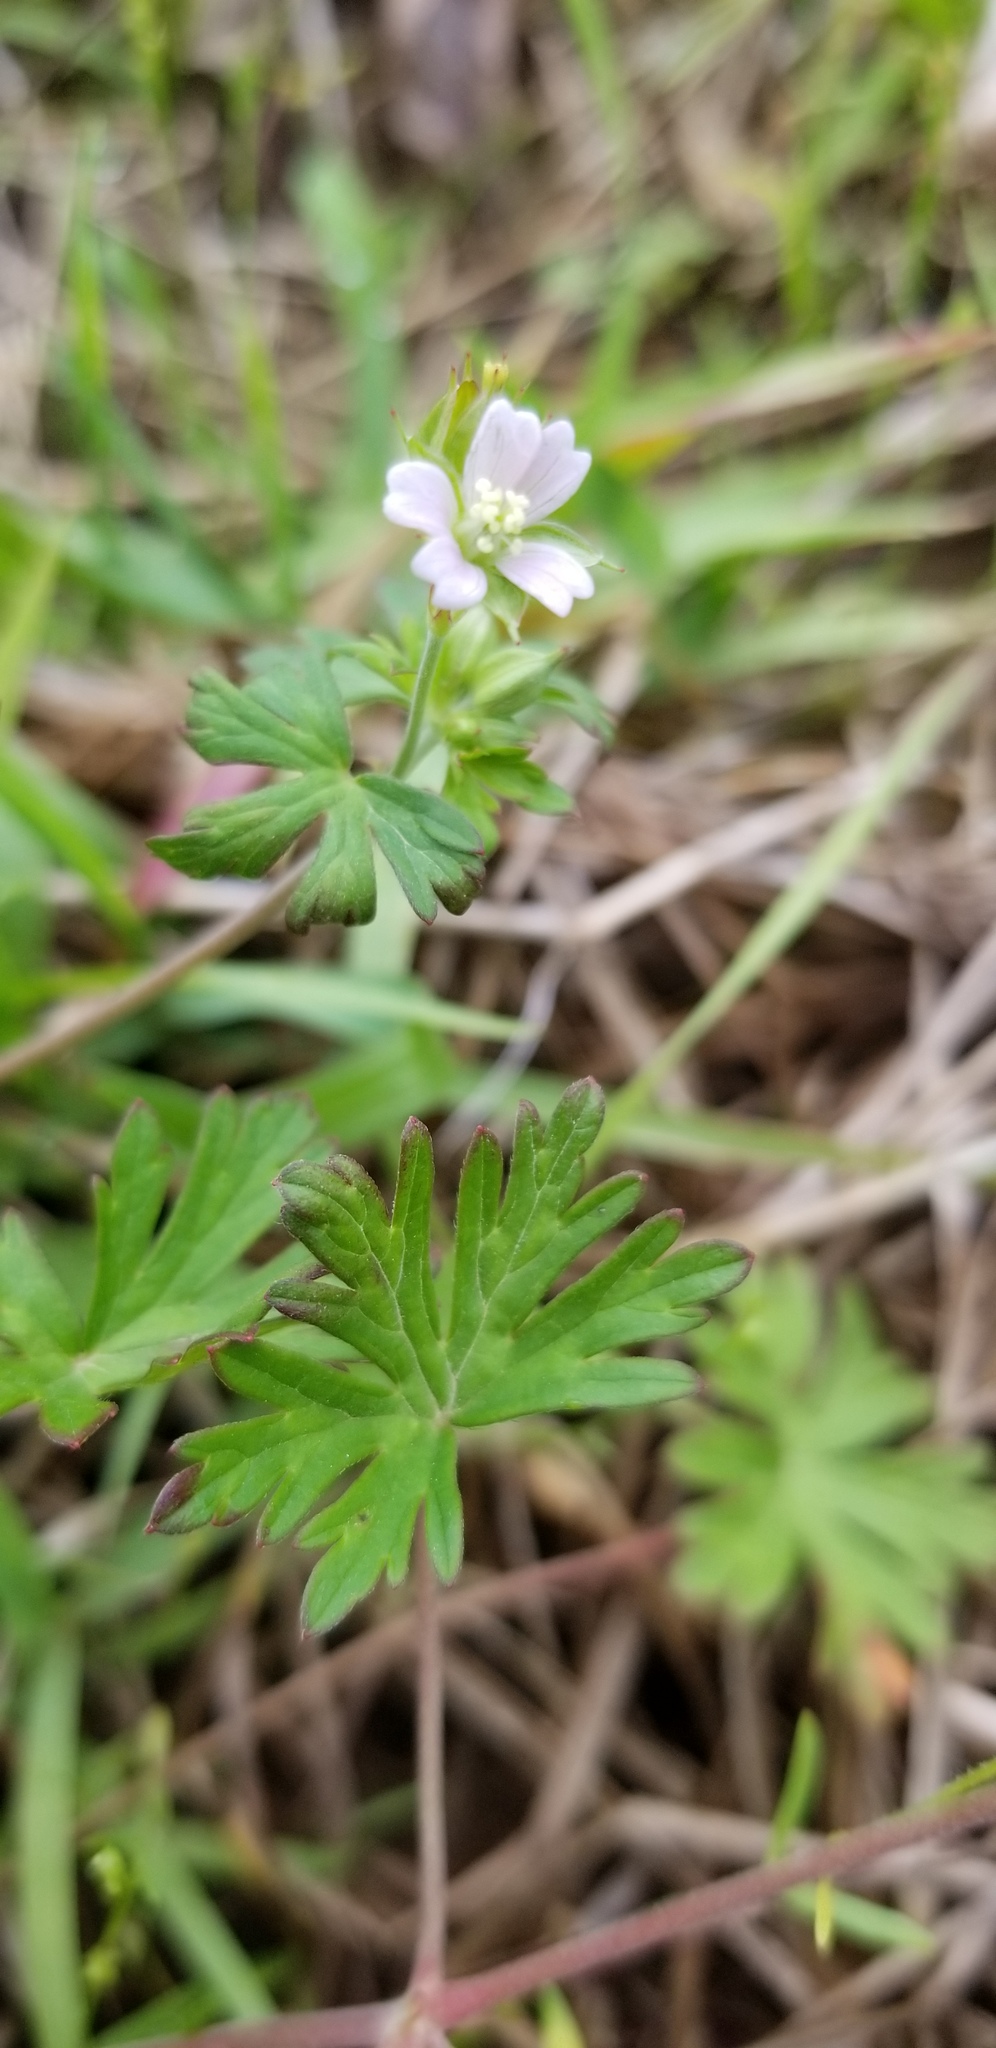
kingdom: Plantae
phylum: Tracheophyta
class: Magnoliopsida
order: Geraniales
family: Geraniaceae
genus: Geranium
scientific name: Geranium carolinianum
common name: Carolina crane's-bill
